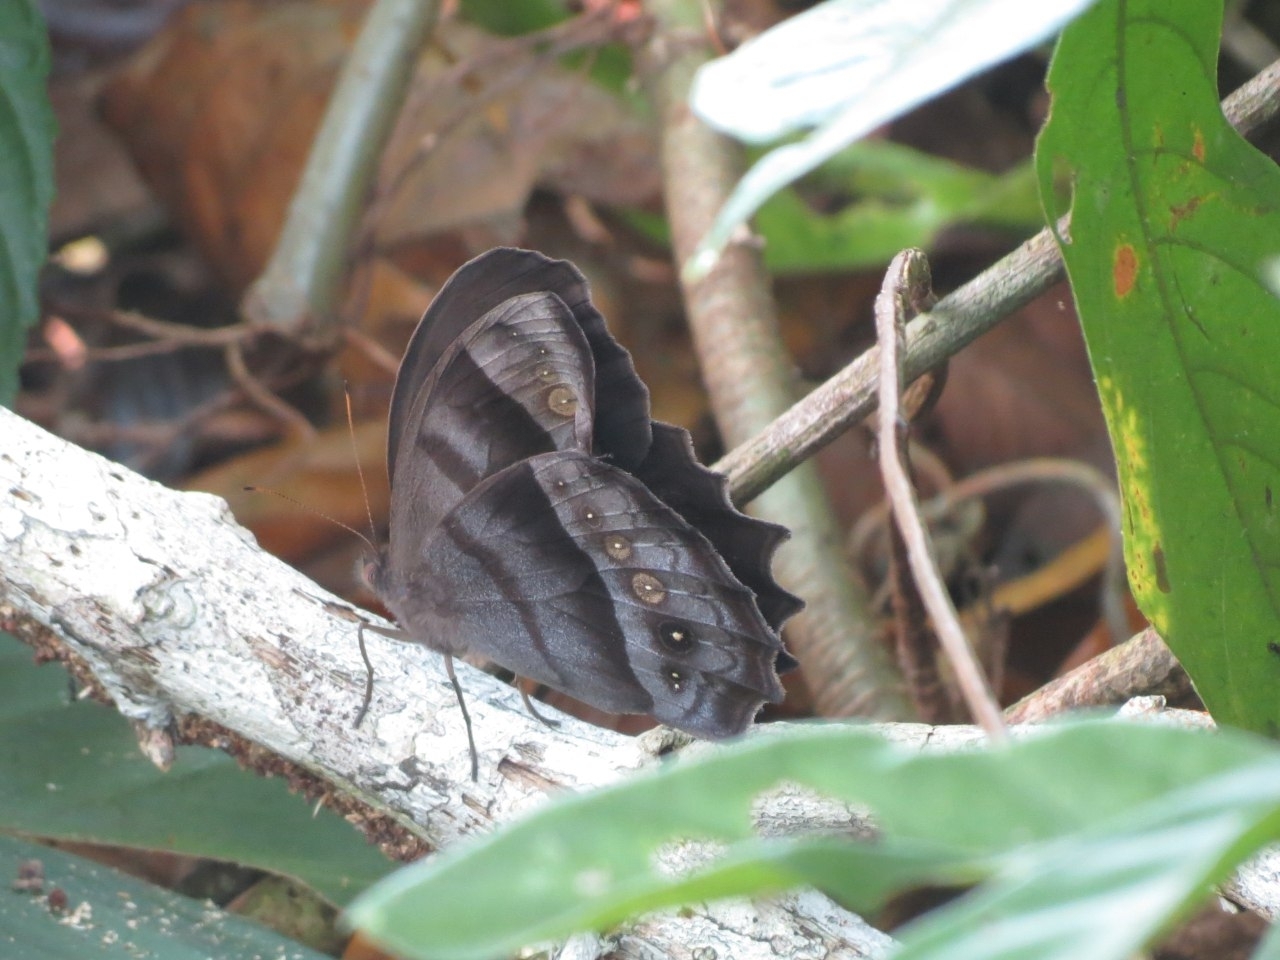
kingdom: Animalia
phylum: Arthropoda
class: Insecta
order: Lepidoptera
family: Nymphalidae
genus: Taygetis
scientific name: Taygetis thamyra
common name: Thamyra satyr
